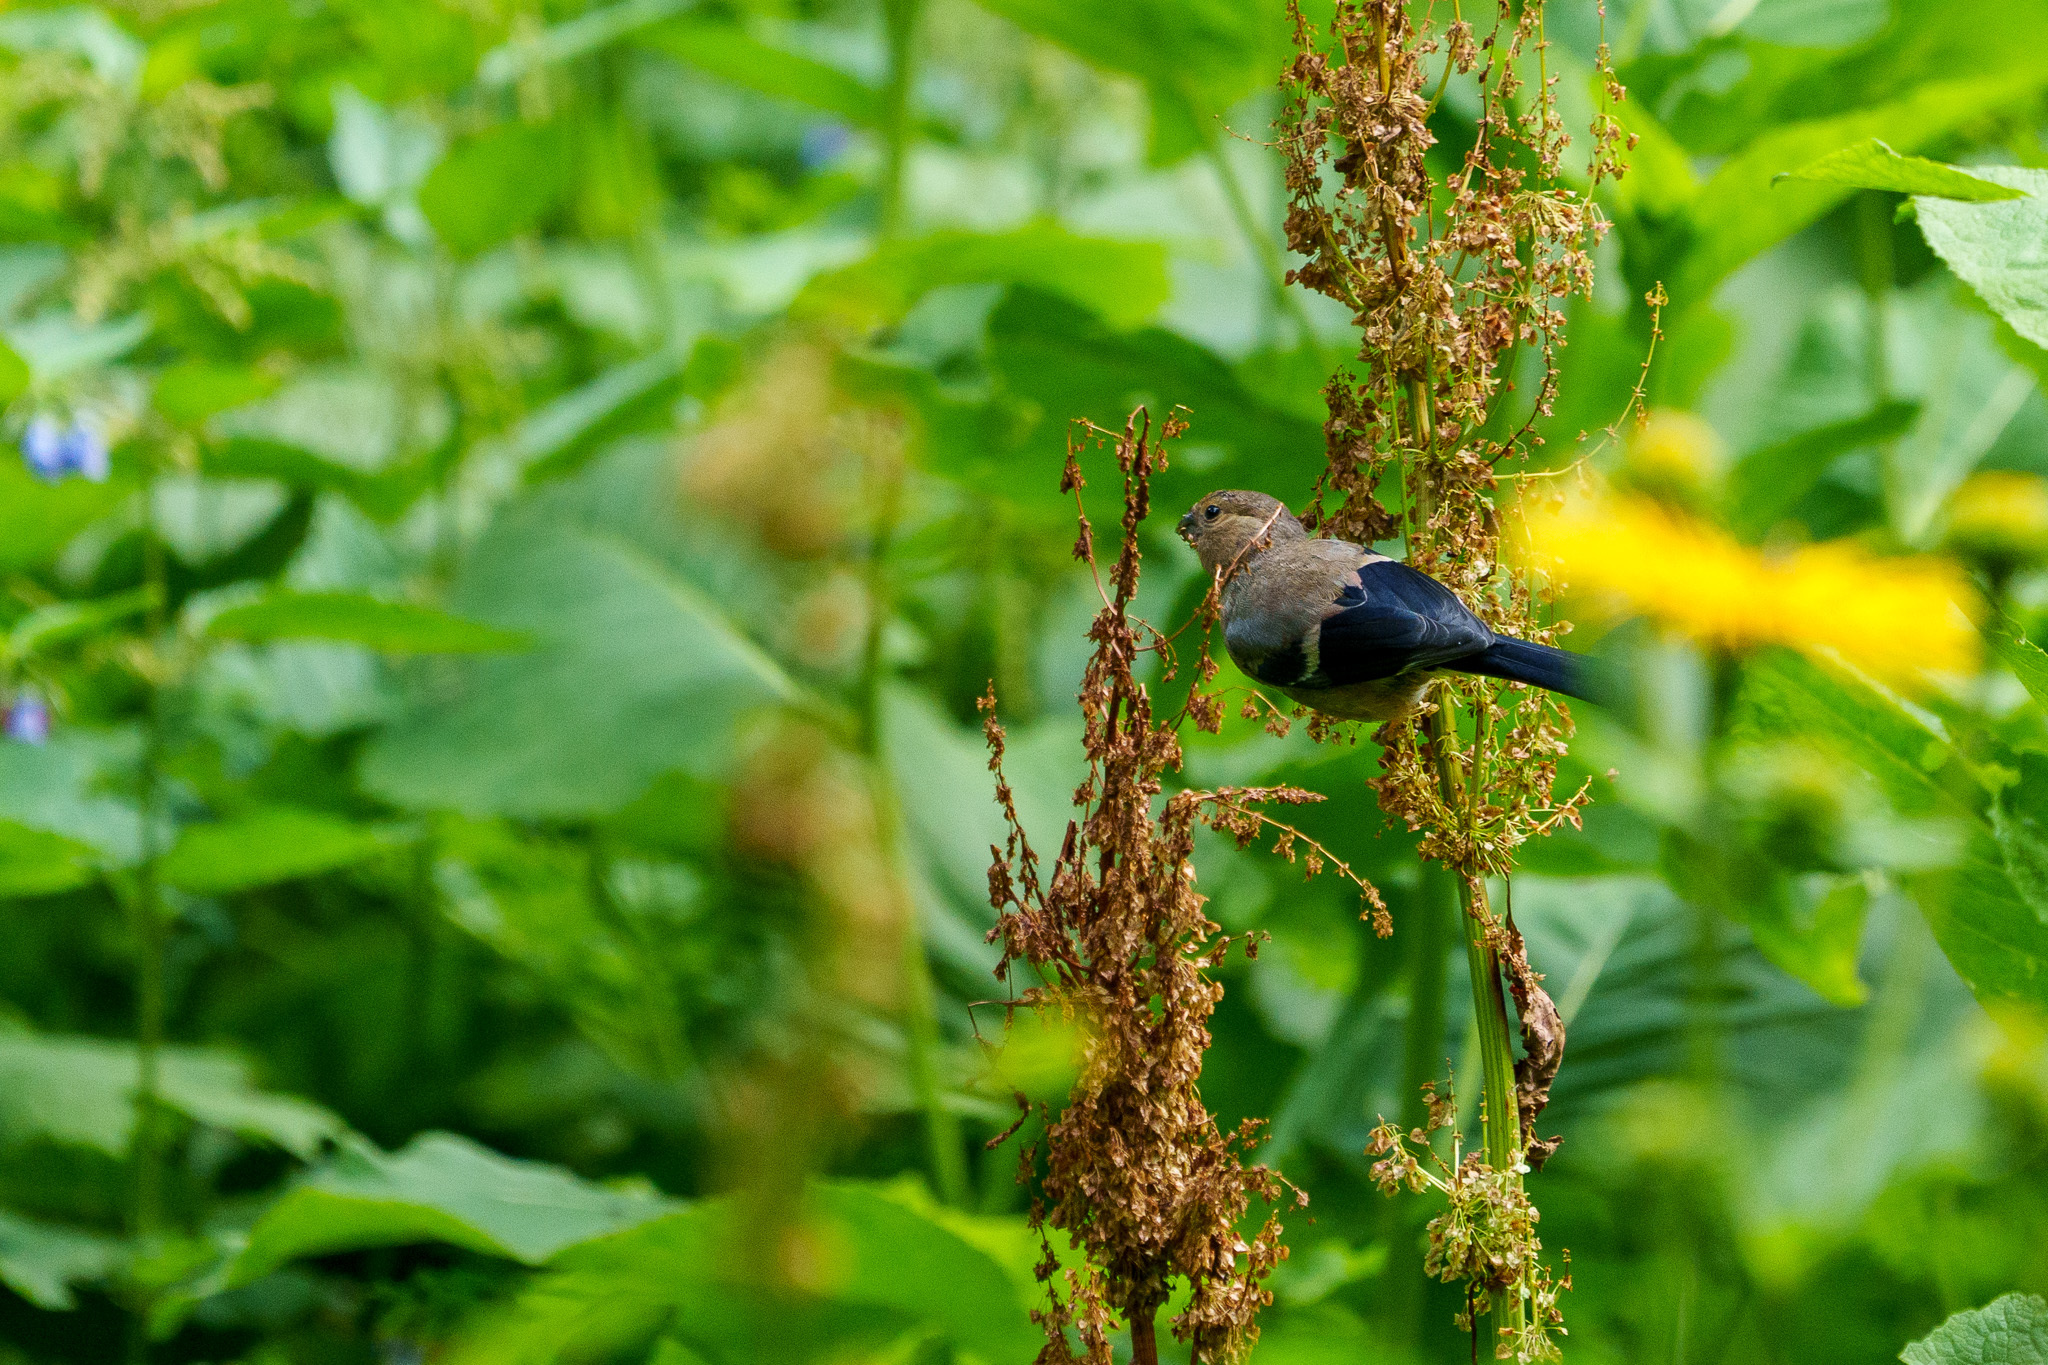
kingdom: Animalia
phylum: Chordata
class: Aves
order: Passeriformes
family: Fringillidae
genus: Pyrrhula
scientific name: Pyrrhula pyrrhula
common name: Eurasian bullfinch
